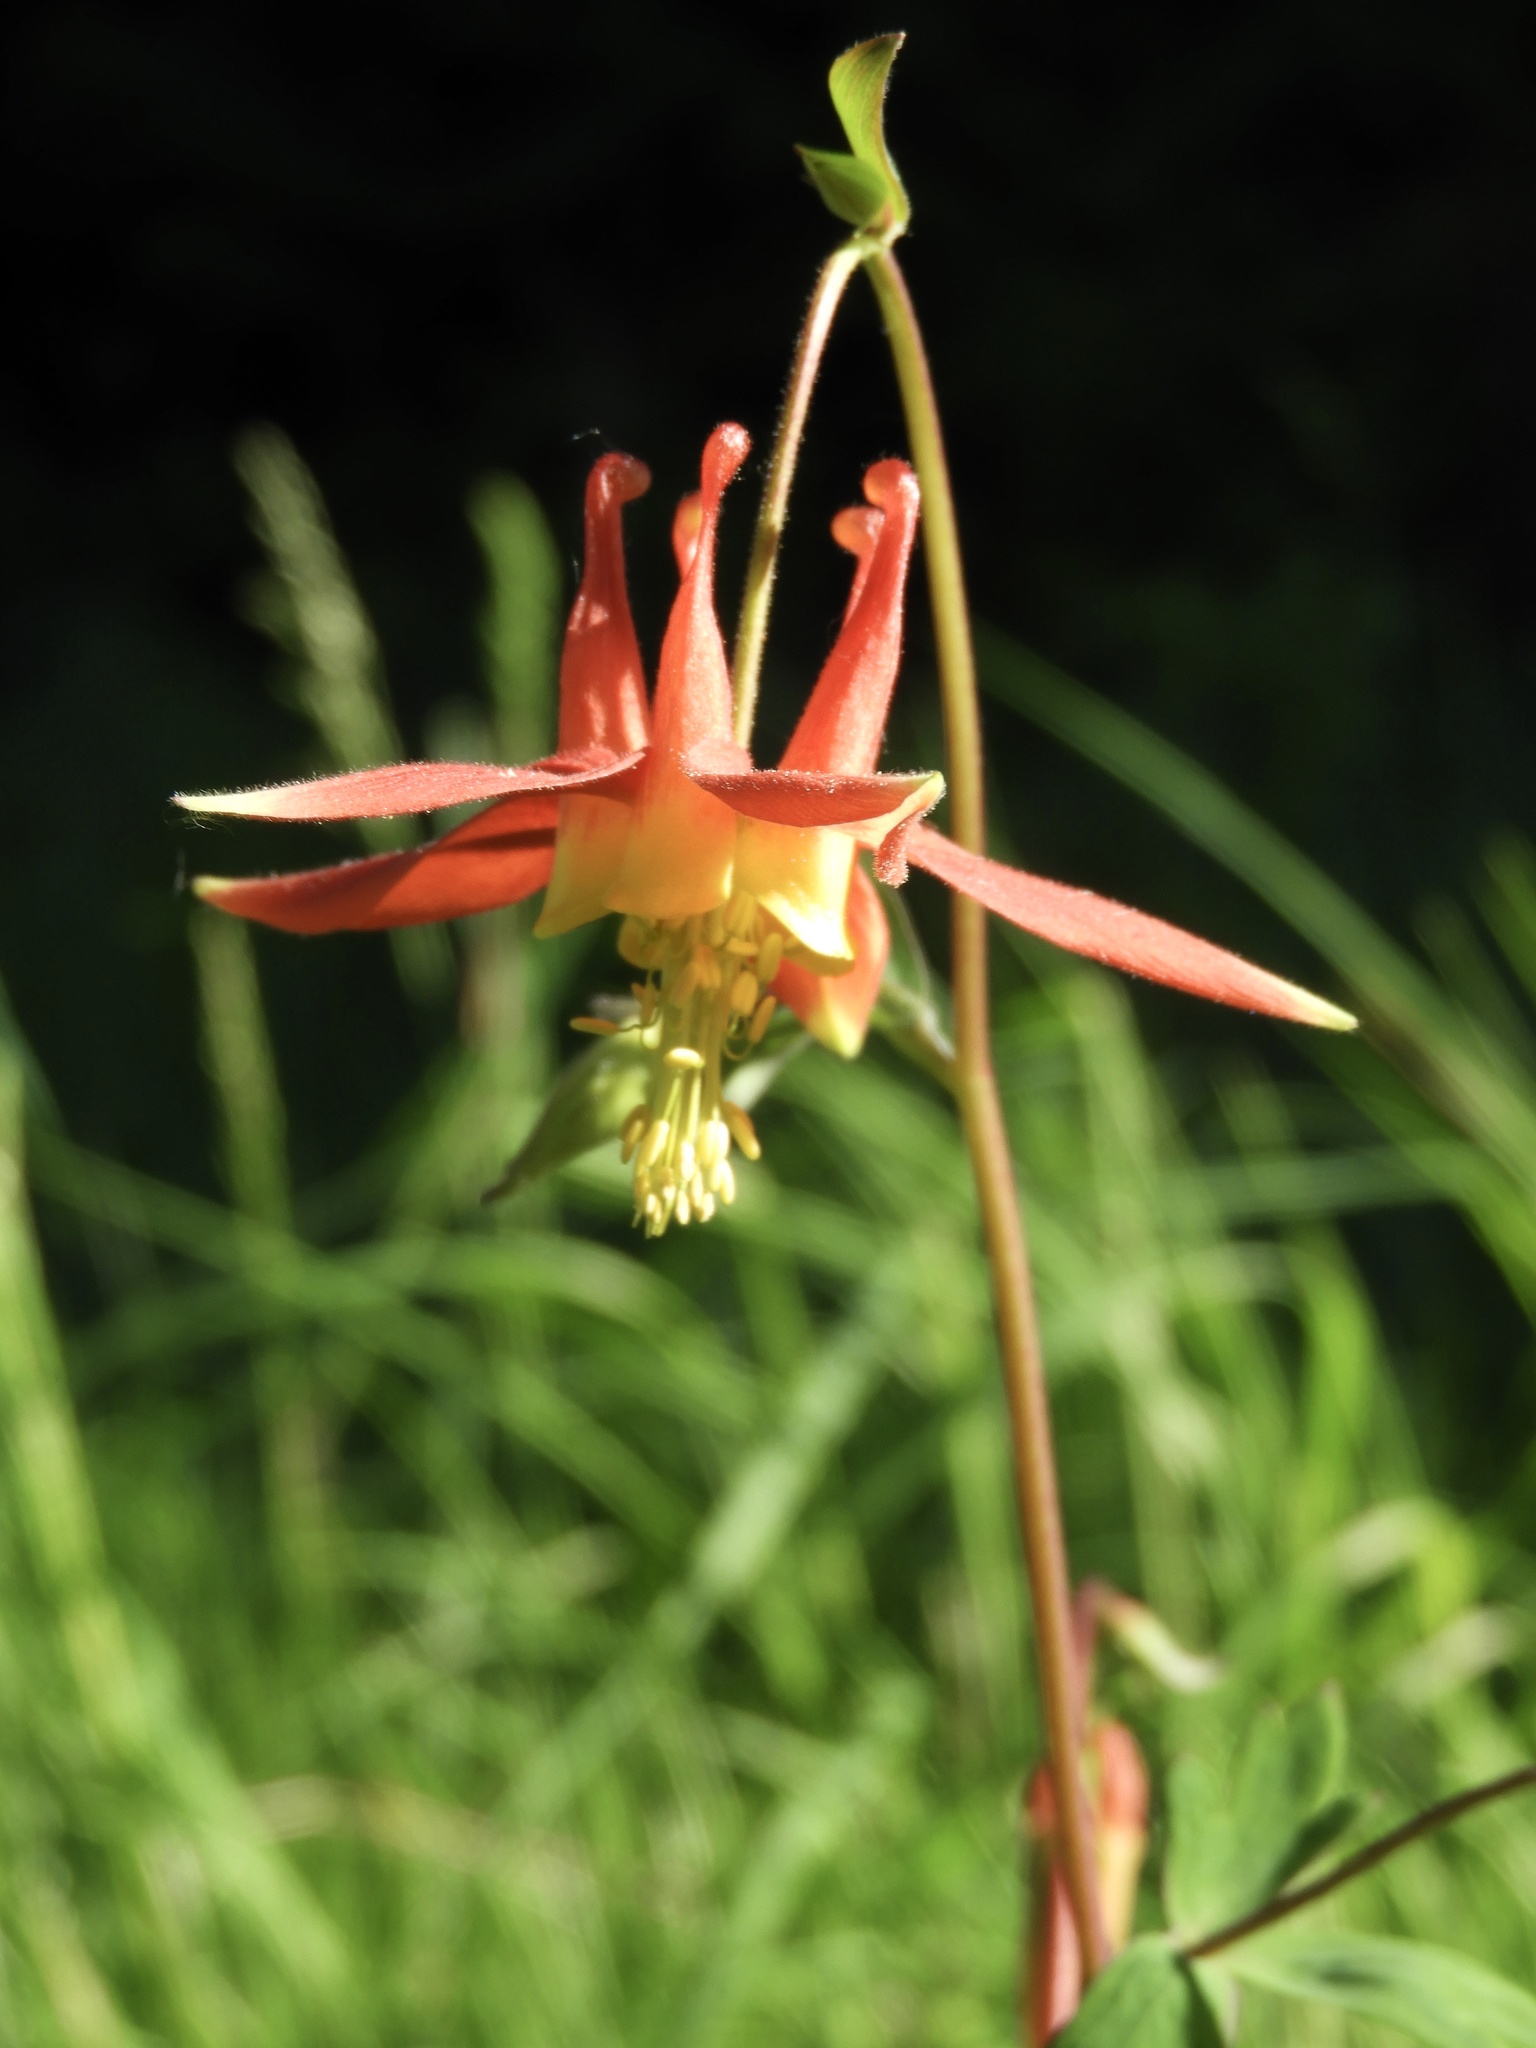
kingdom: Plantae
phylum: Tracheophyta
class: Magnoliopsida
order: Ranunculales
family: Ranunculaceae
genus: Aquilegia
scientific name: Aquilegia formosa
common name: Sitka columbine
